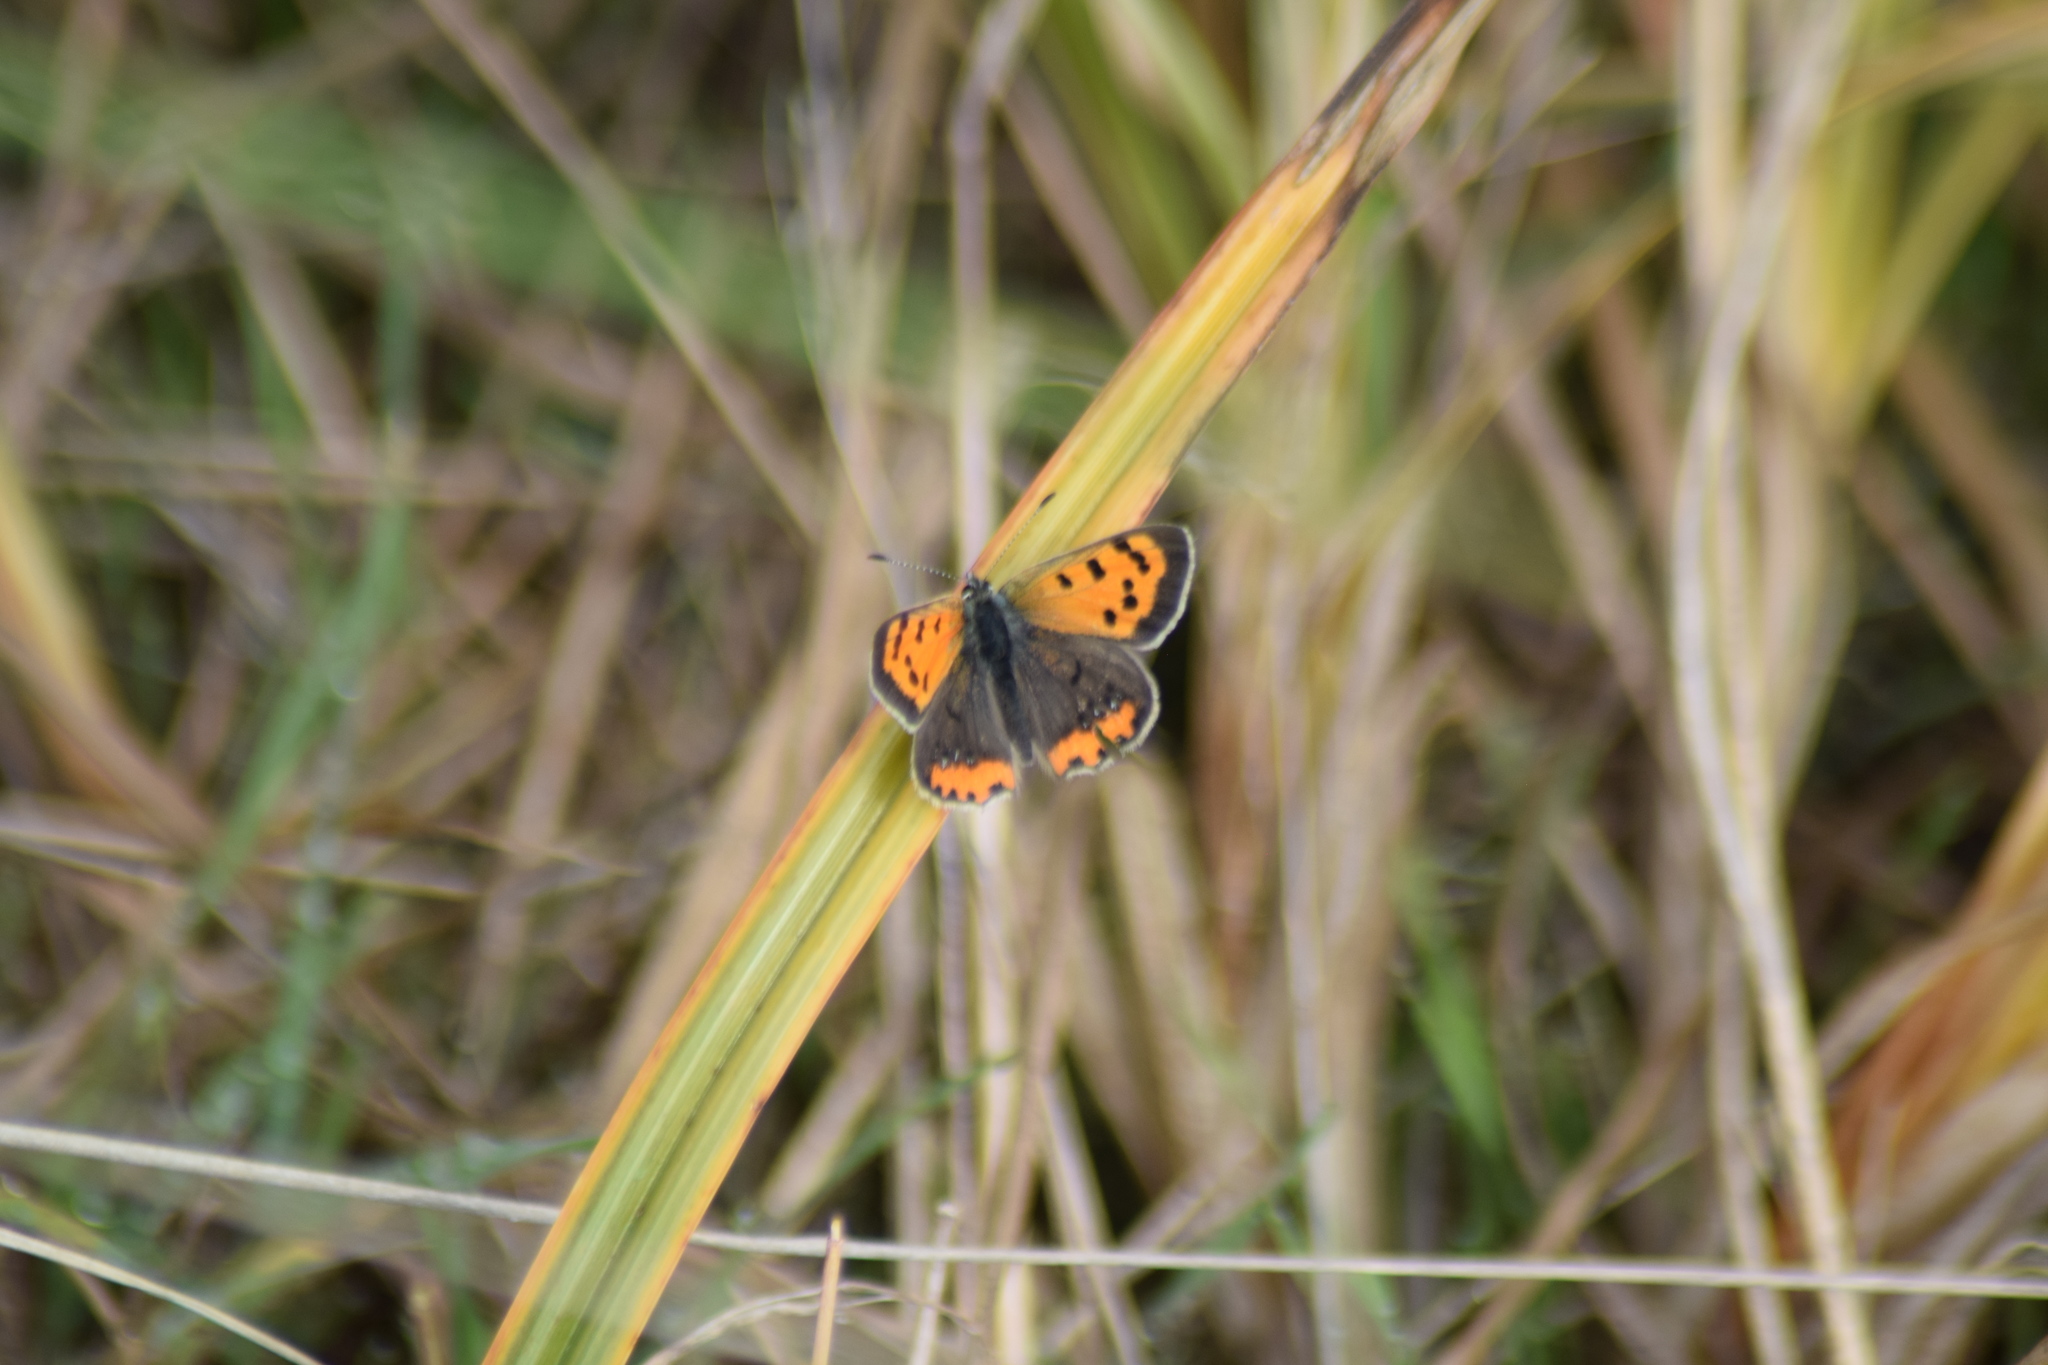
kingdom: Animalia
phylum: Arthropoda
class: Insecta
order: Lepidoptera
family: Lycaenidae
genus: Lycaena
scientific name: Lycaena hypophlaeas
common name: American copper
